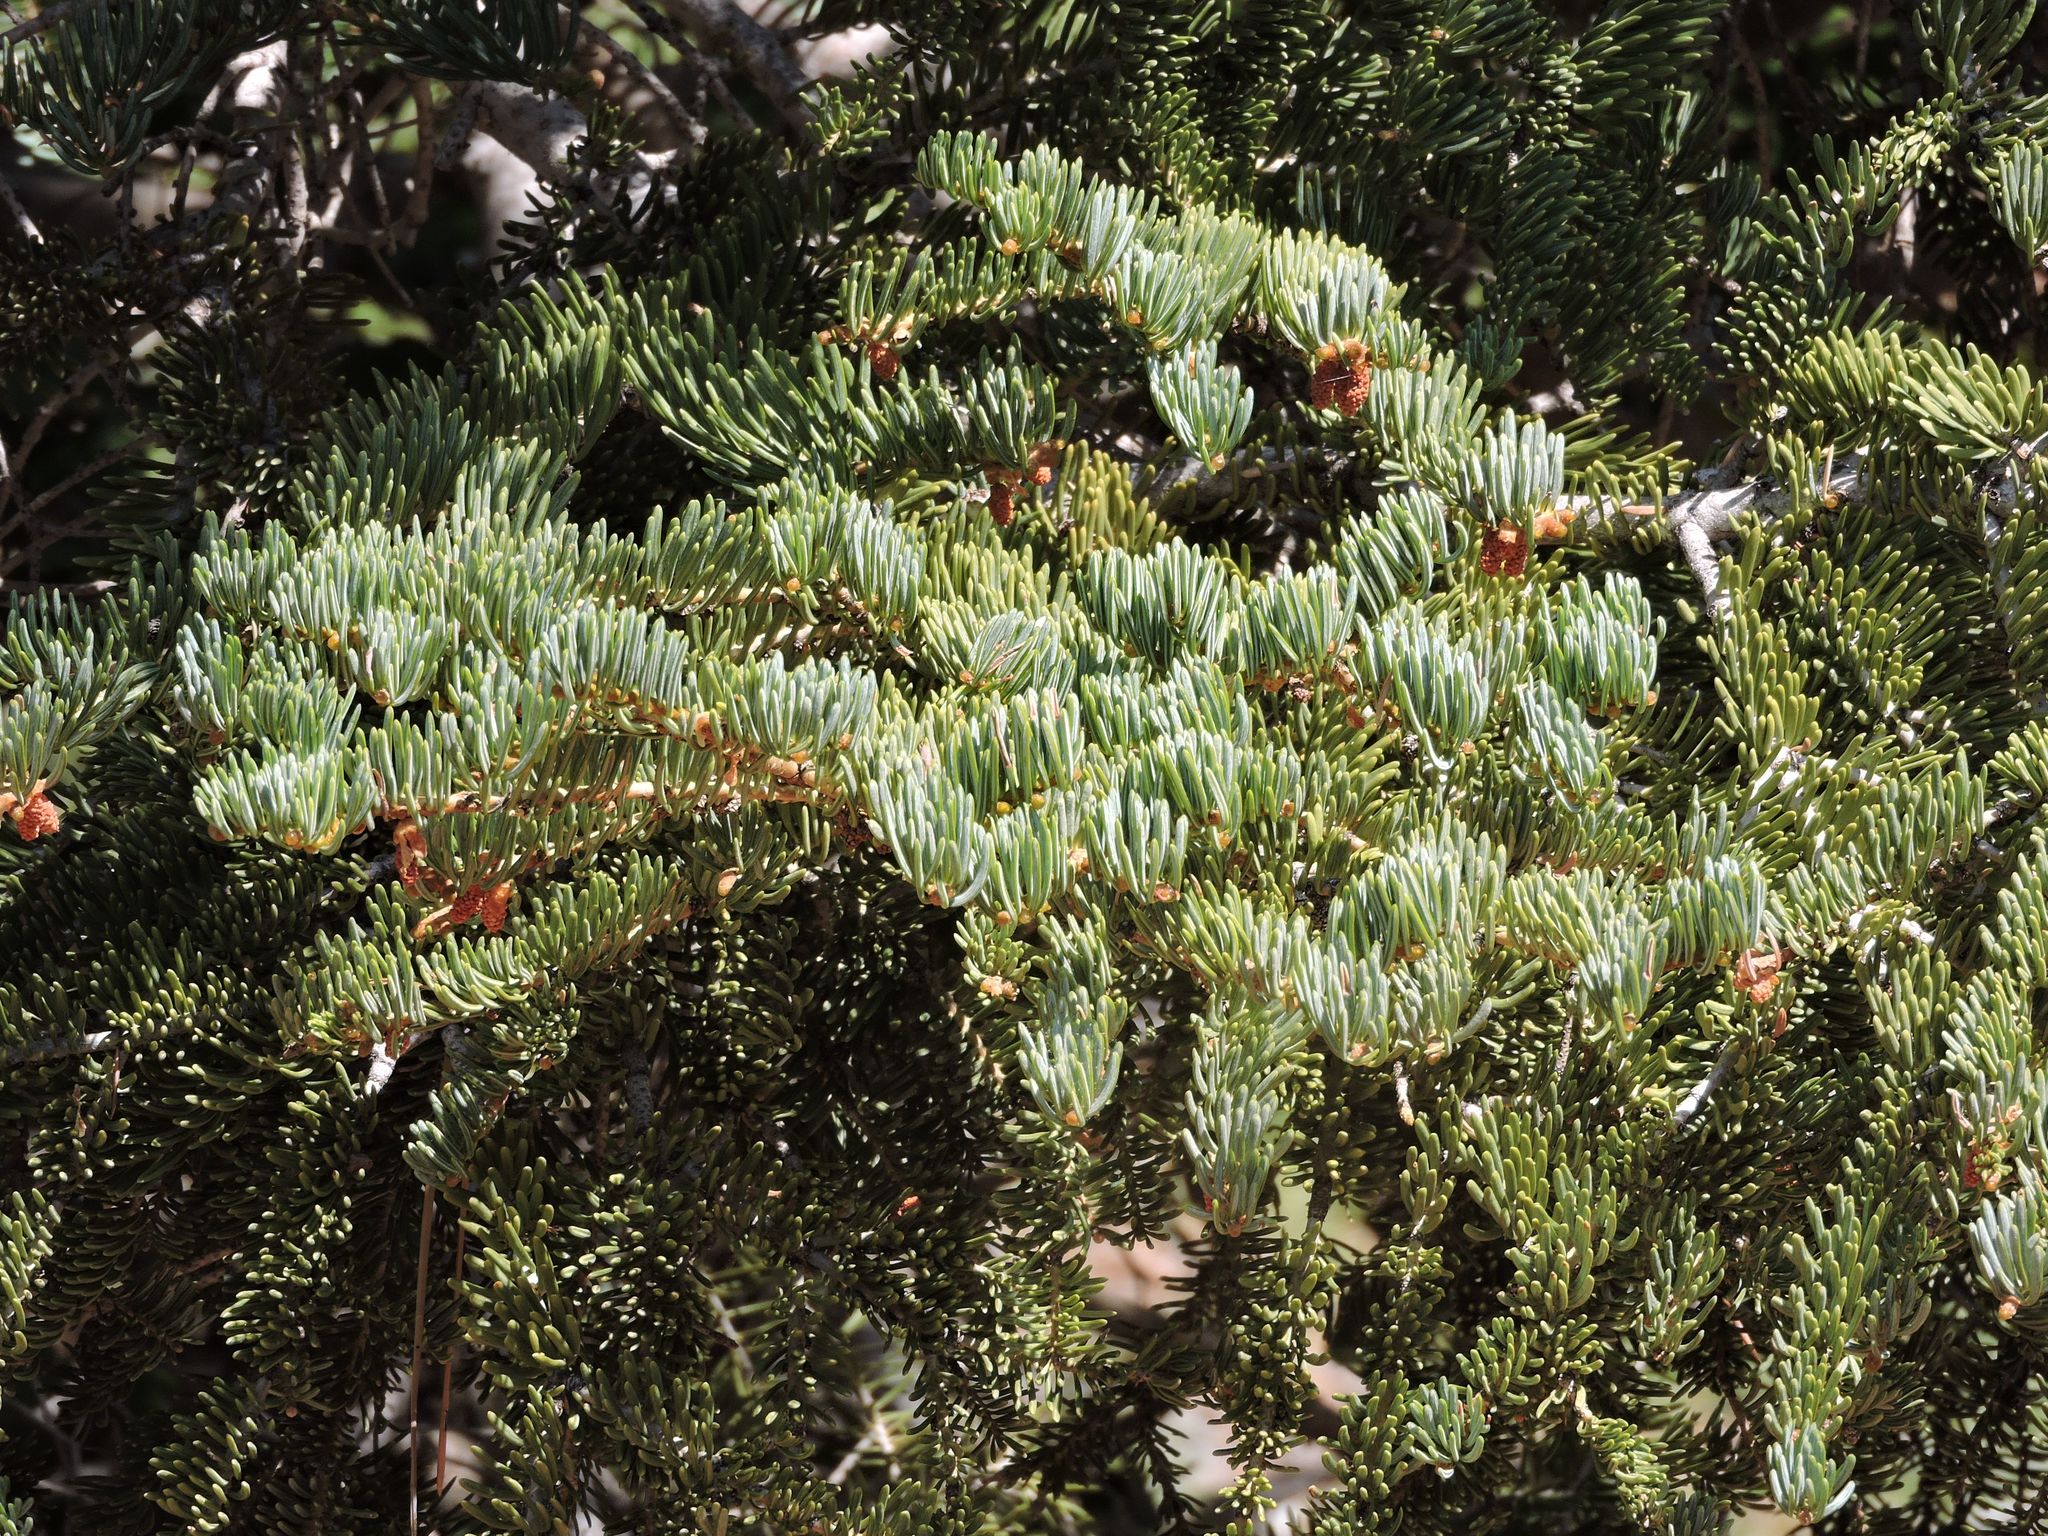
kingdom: Plantae
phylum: Tracheophyta
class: Pinopsida
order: Pinales
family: Pinaceae
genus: Abies
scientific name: Abies concolor
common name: Colorado fir
